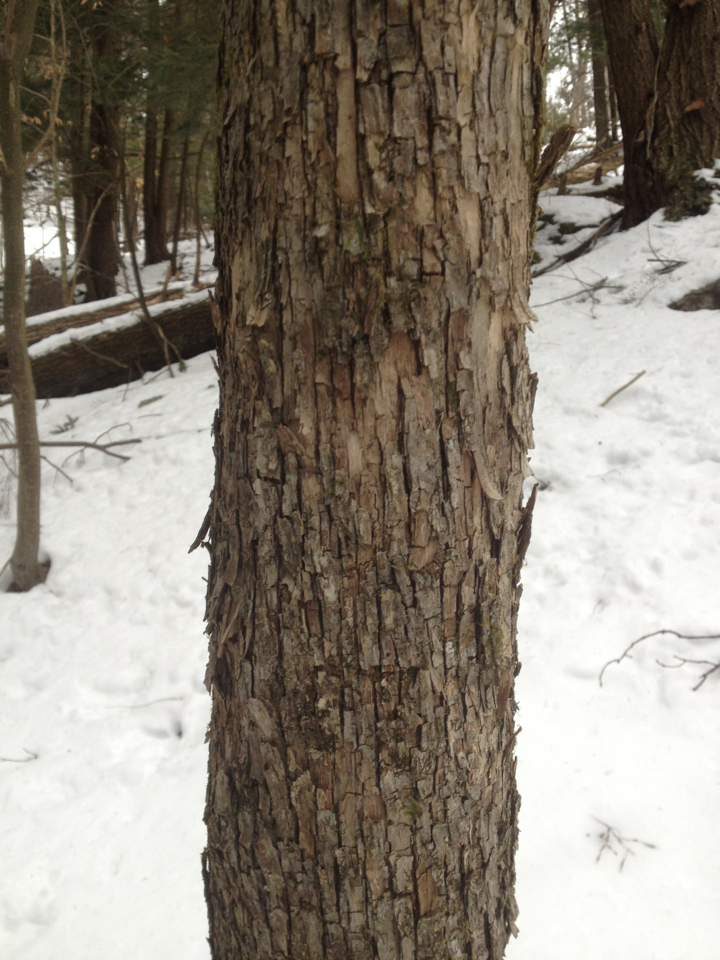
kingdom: Plantae
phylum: Tracheophyta
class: Magnoliopsida
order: Fagales
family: Betulaceae
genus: Ostrya
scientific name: Ostrya virginiana
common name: Ironwood
